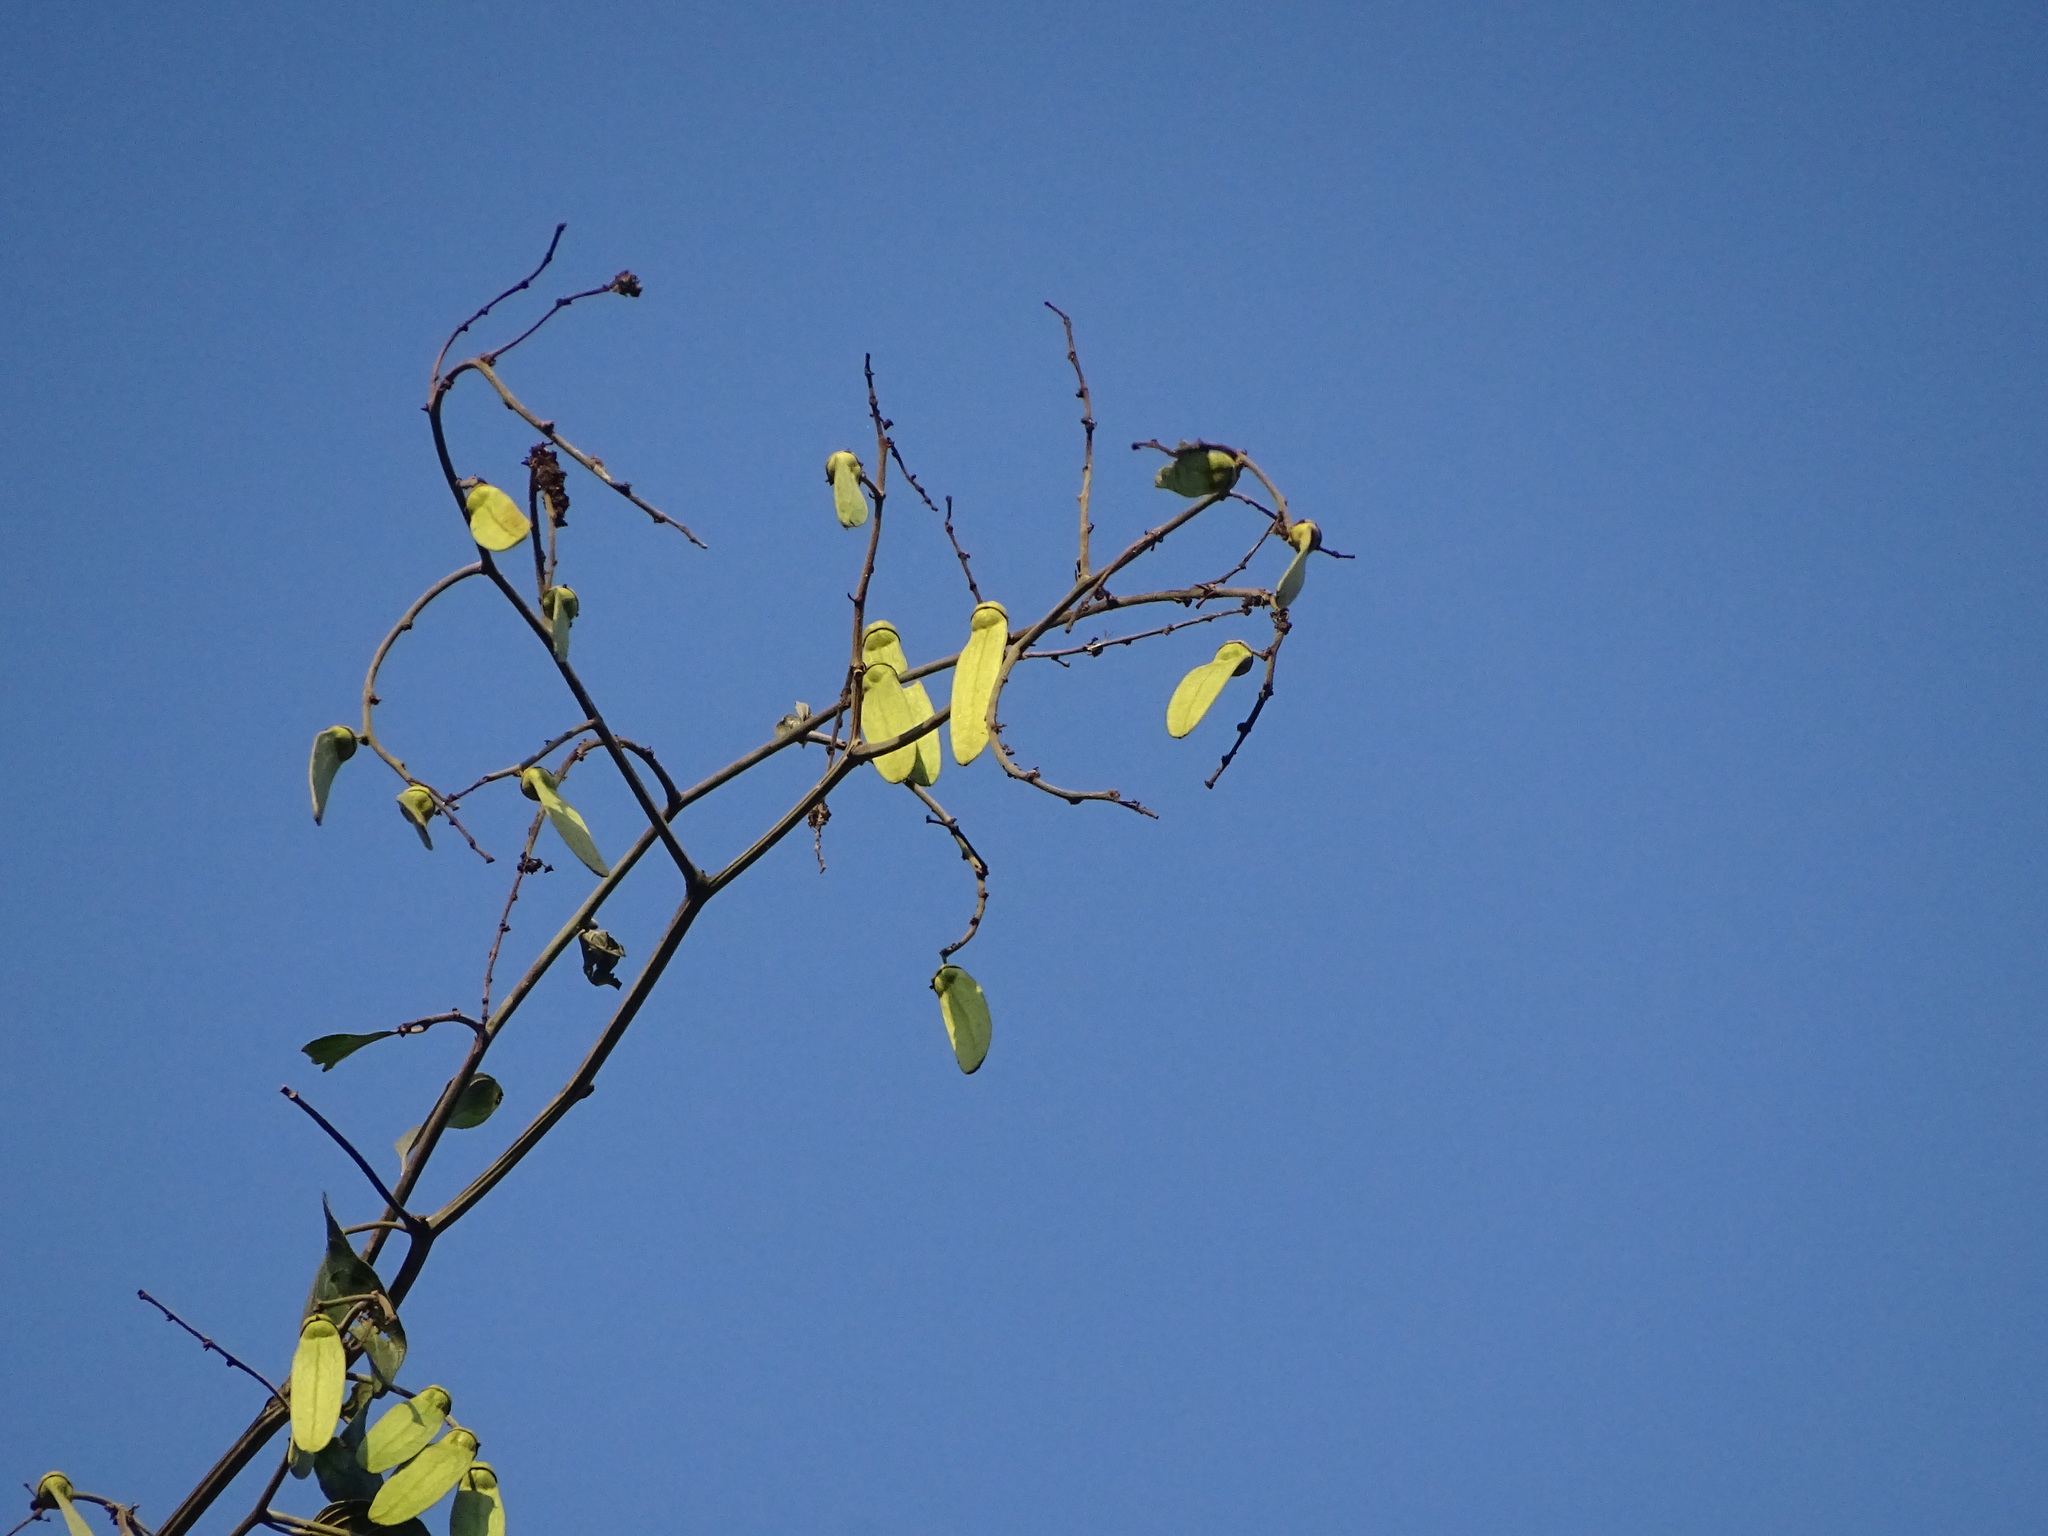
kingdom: Plantae
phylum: Tracheophyta
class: Magnoliopsida
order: Rosales
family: Rhamnaceae
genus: Ventilago
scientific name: Ventilago denticulata
